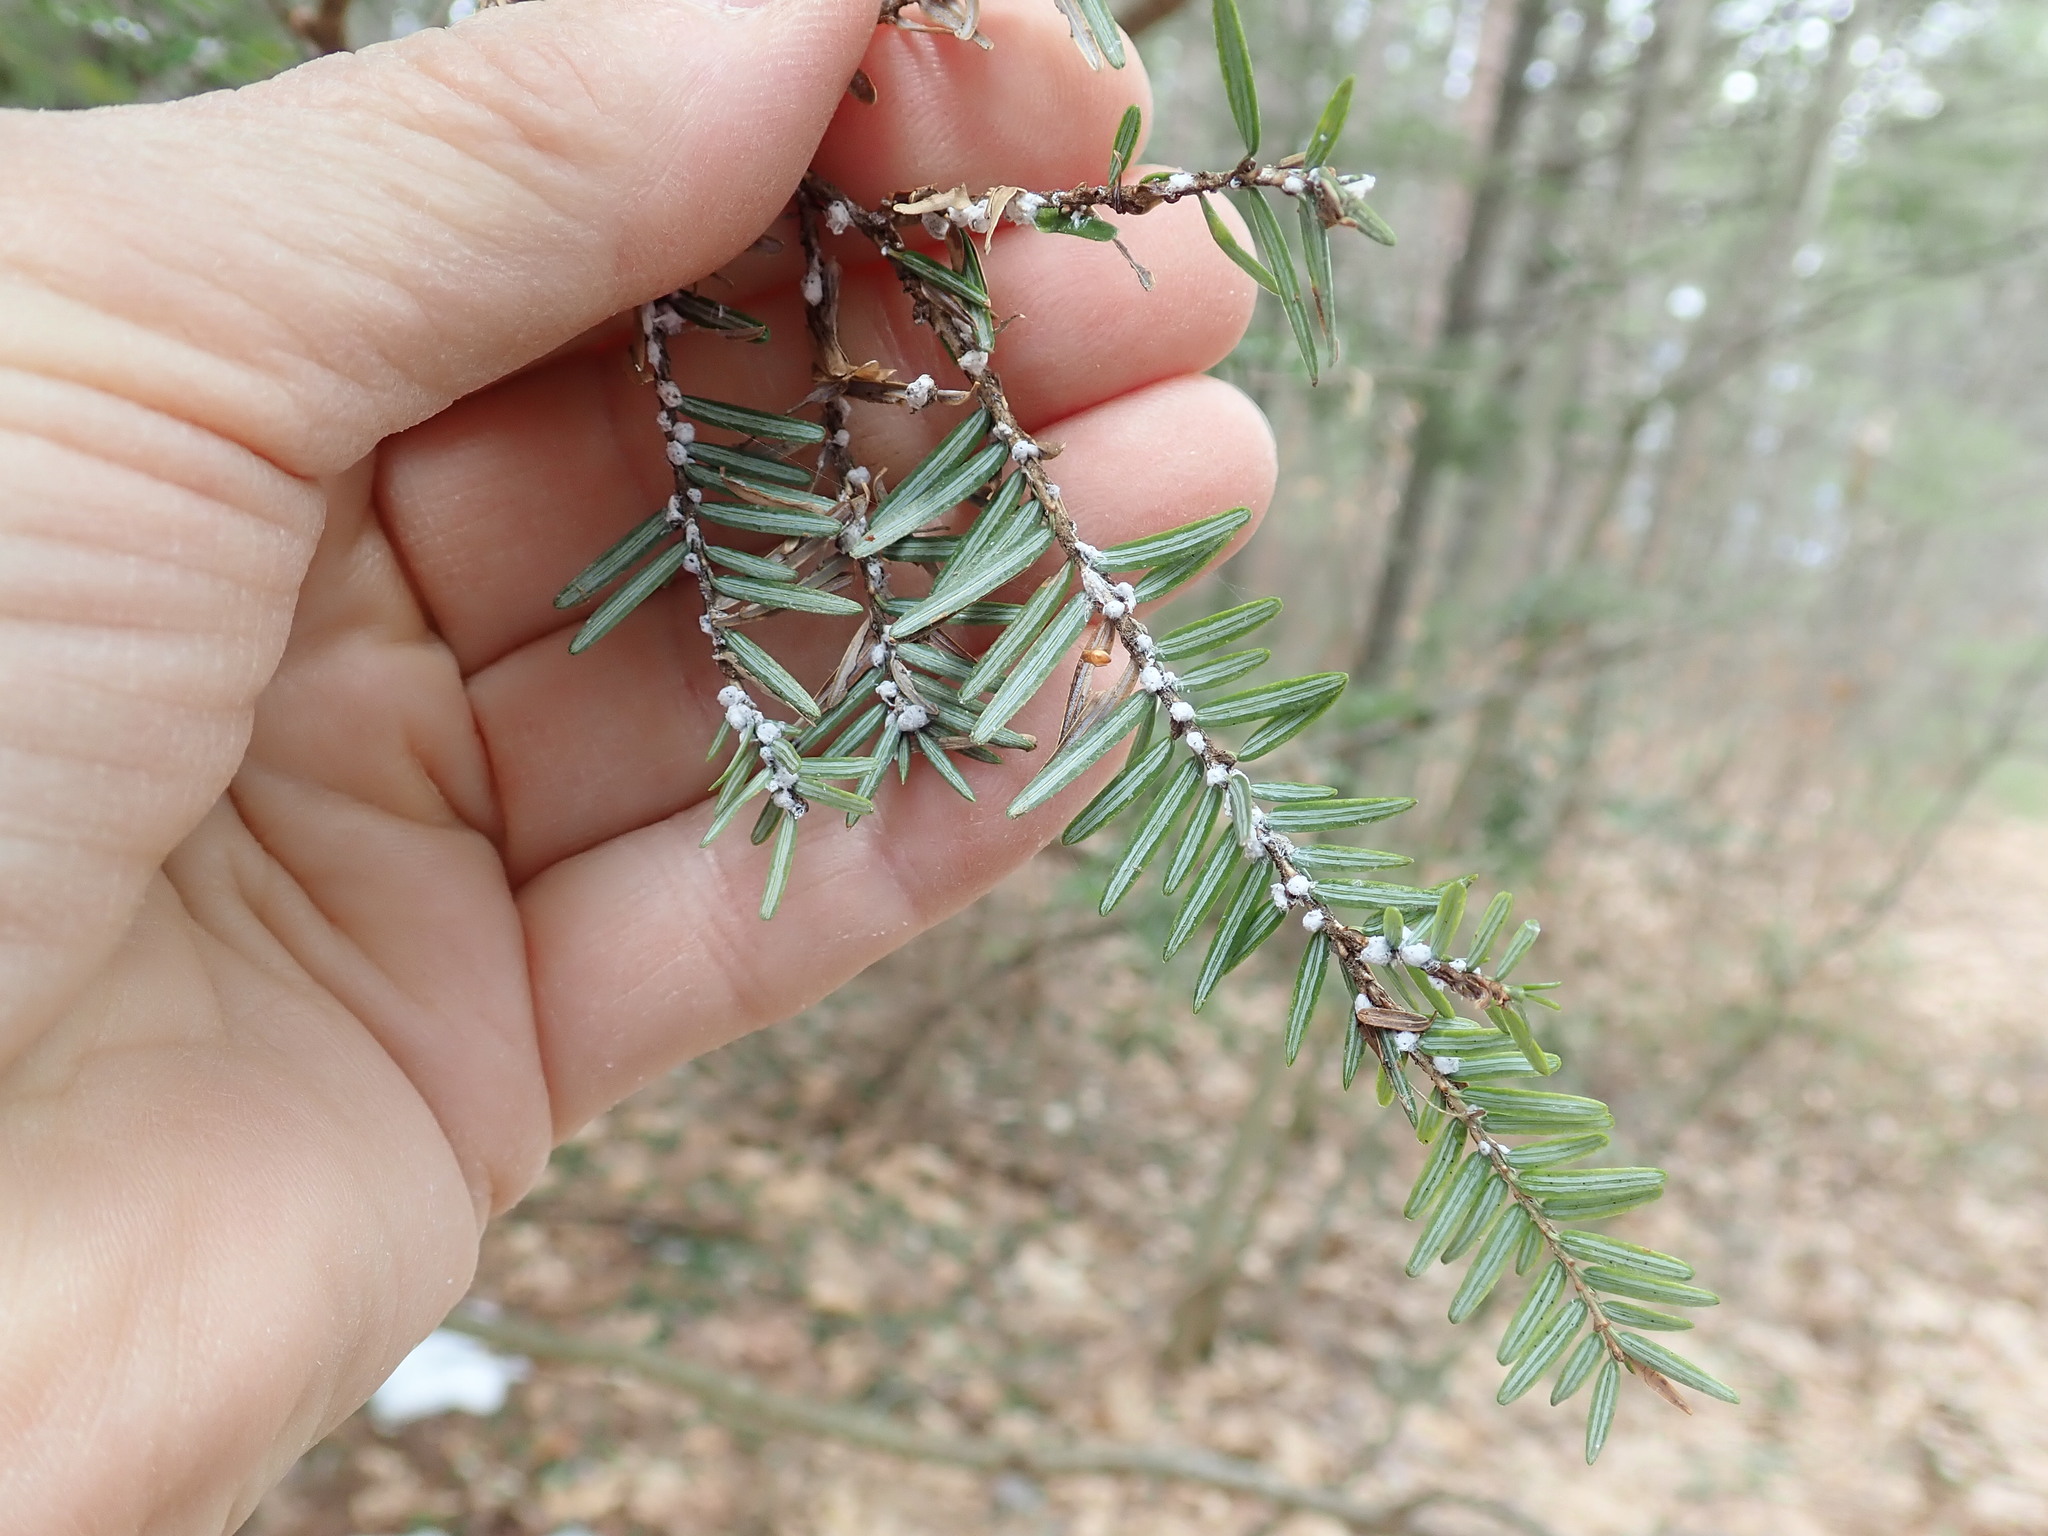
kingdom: Animalia
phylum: Arthropoda
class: Insecta
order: Hemiptera
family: Adelgidae
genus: Adelges
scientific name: Adelges tsugae
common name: Hemlock woolly adelgid
